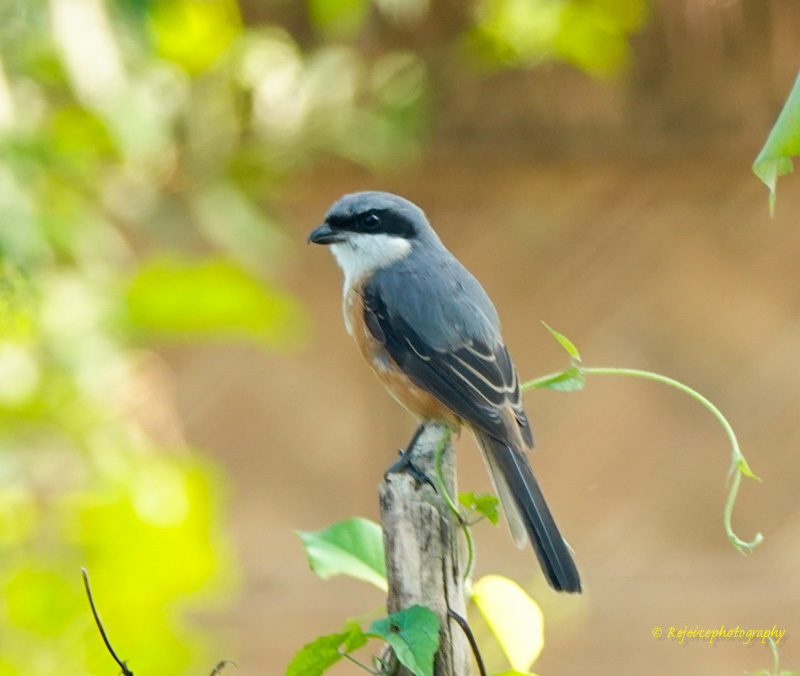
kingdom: Animalia
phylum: Chordata
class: Aves
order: Passeriformes
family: Laniidae
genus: Lanius
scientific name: Lanius tephronotus
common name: Grey-backed shrike
